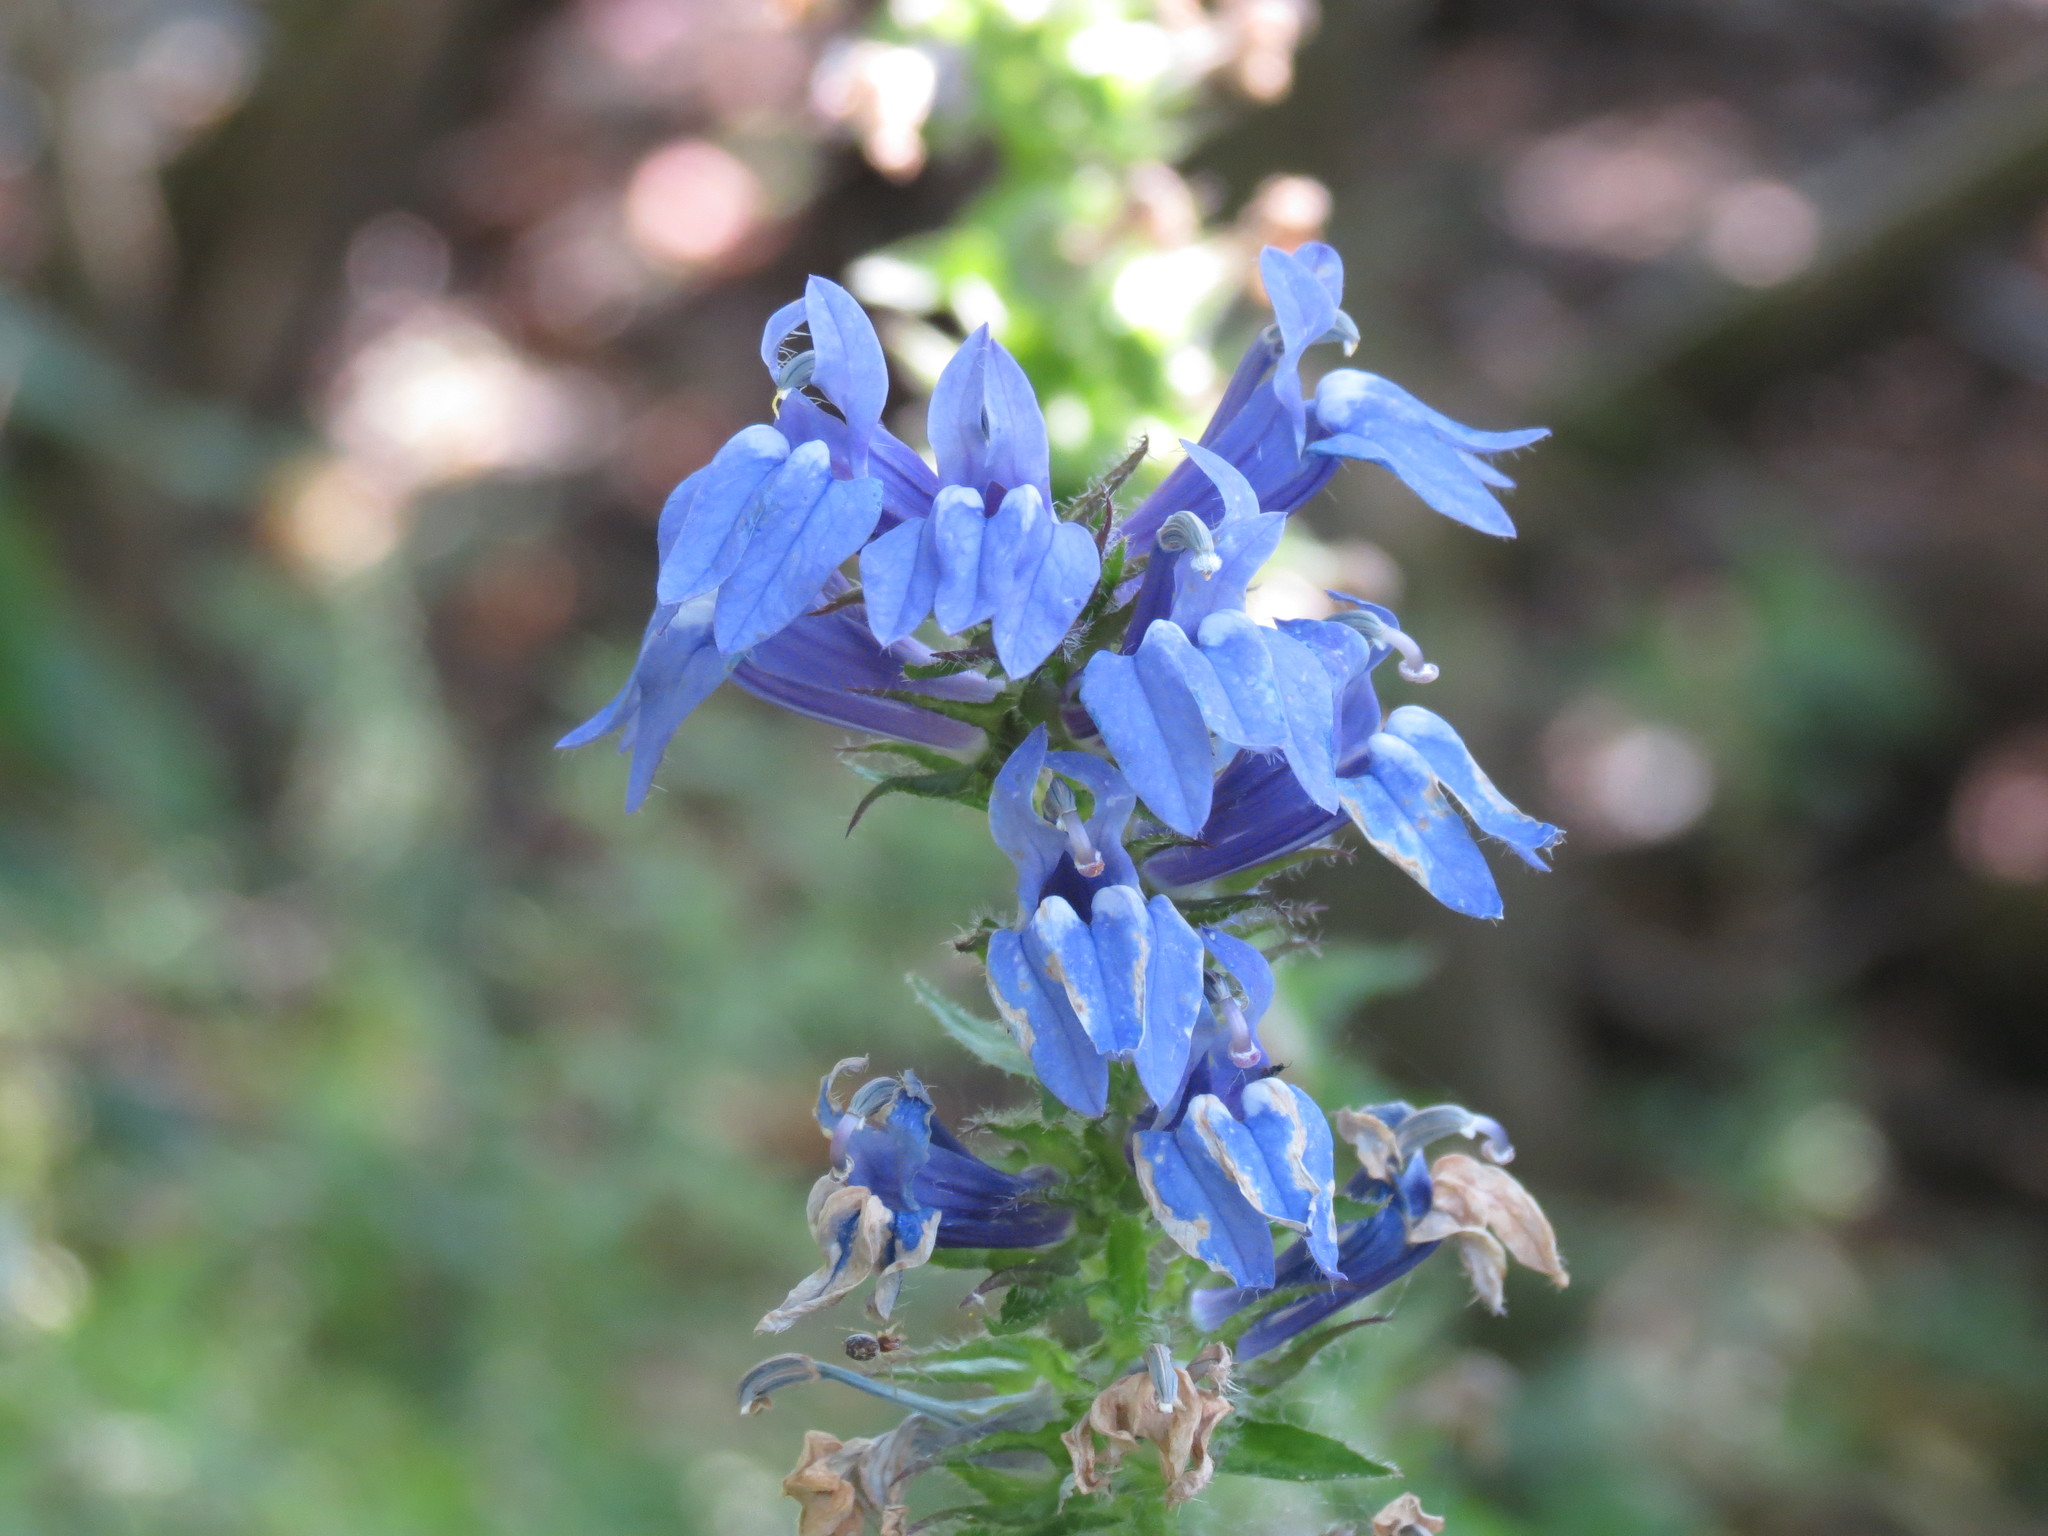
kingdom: Plantae
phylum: Tracheophyta
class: Magnoliopsida
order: Asterales
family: Campanulaceae
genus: Lobelia
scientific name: Lobelia siphilitica
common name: Great lobelia
